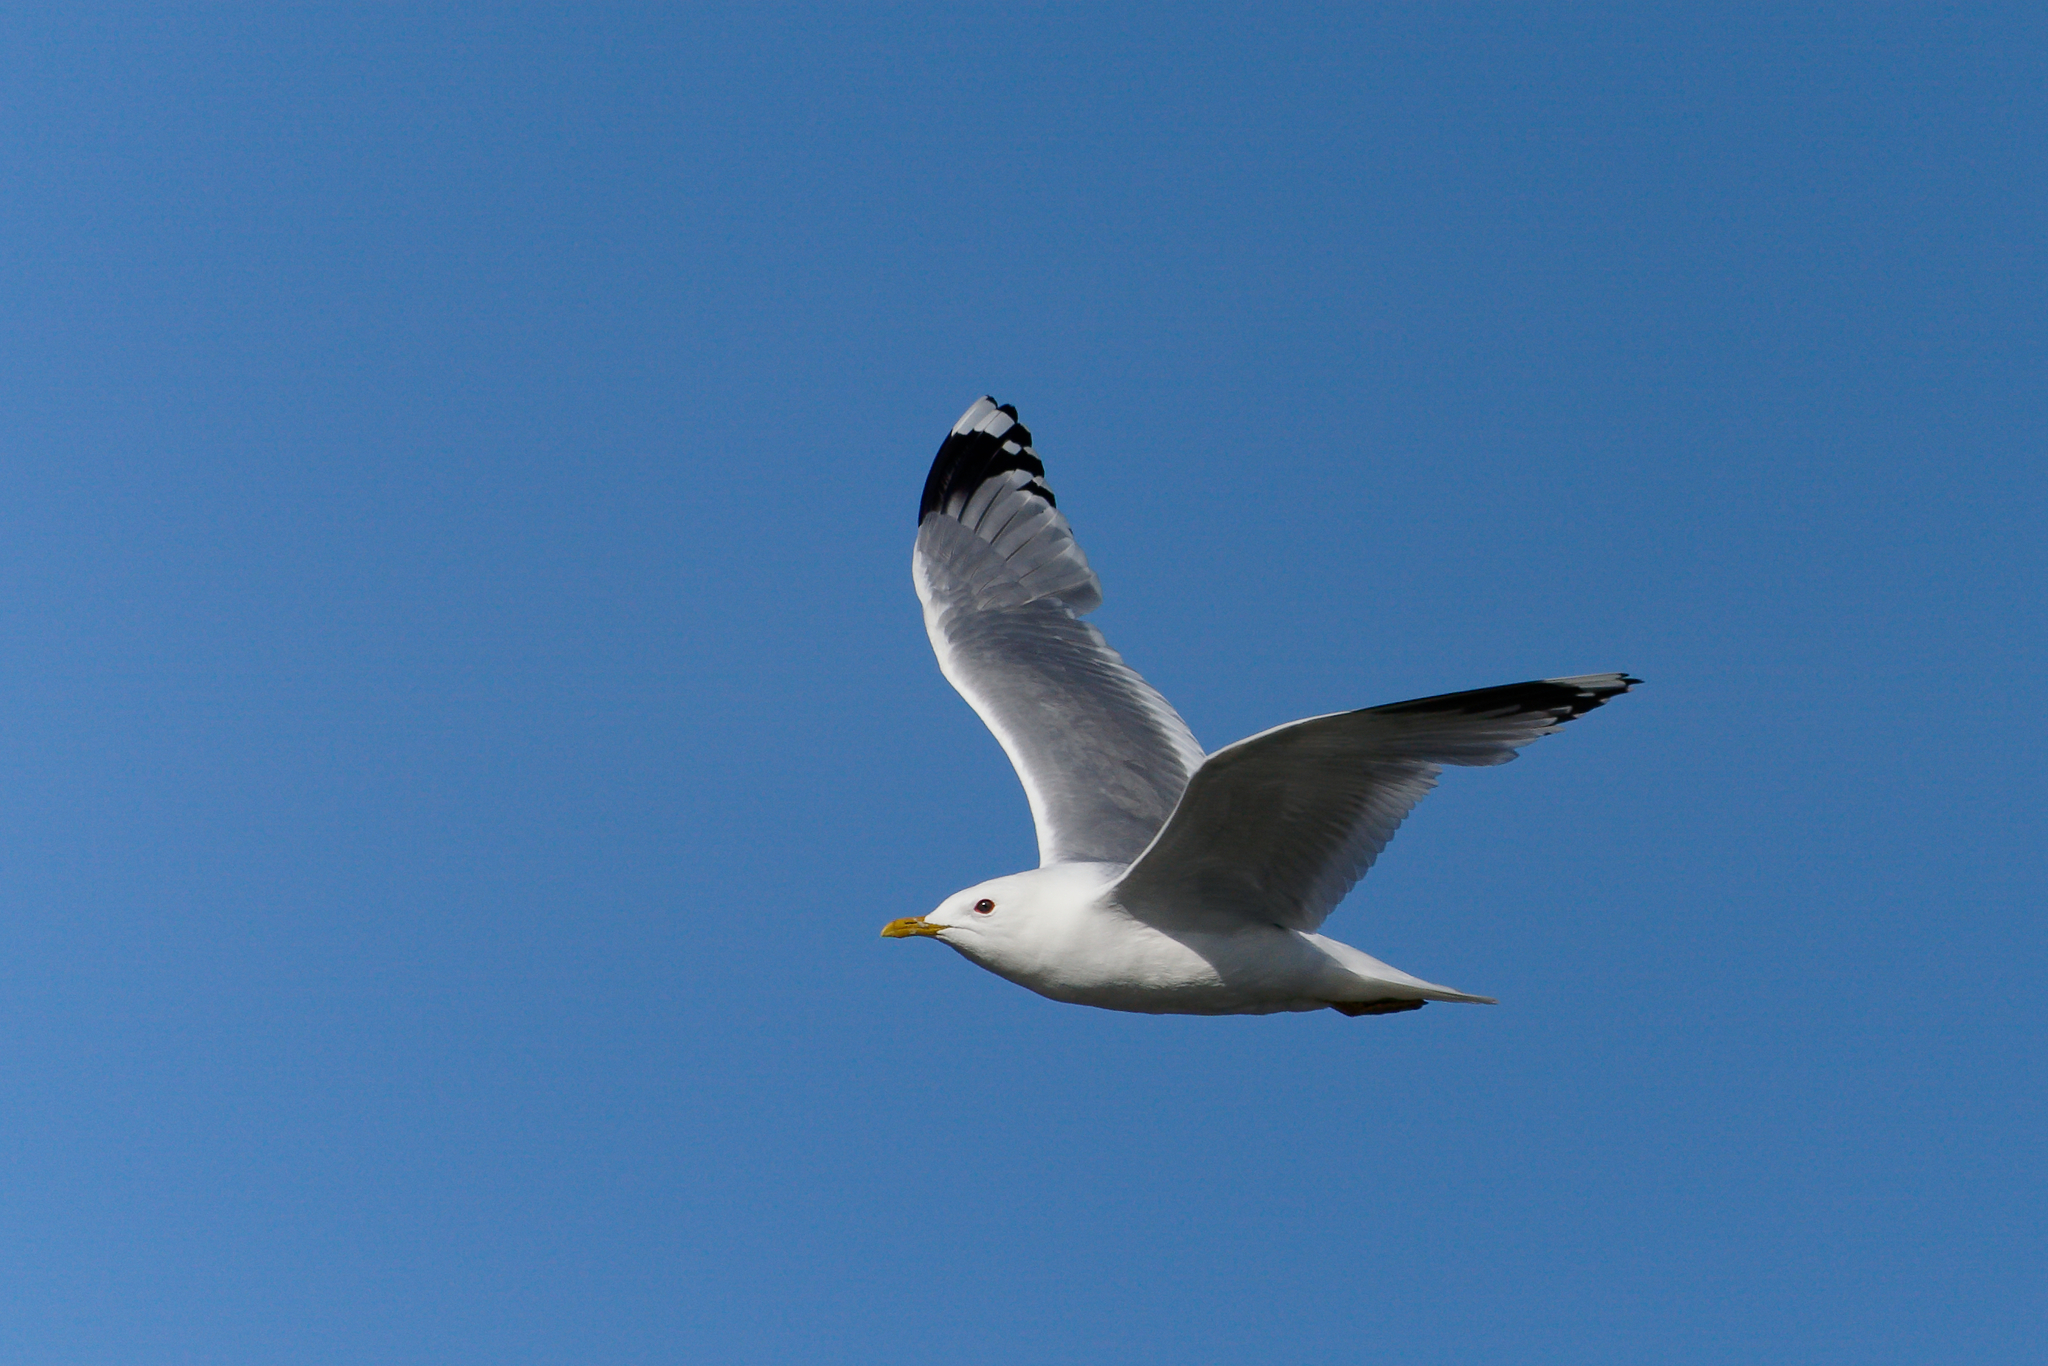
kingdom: Animalia
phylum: Chordata
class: Aves
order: Charadriiformes
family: Laridae
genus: Larus
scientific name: Larus canus
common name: Mew gull
